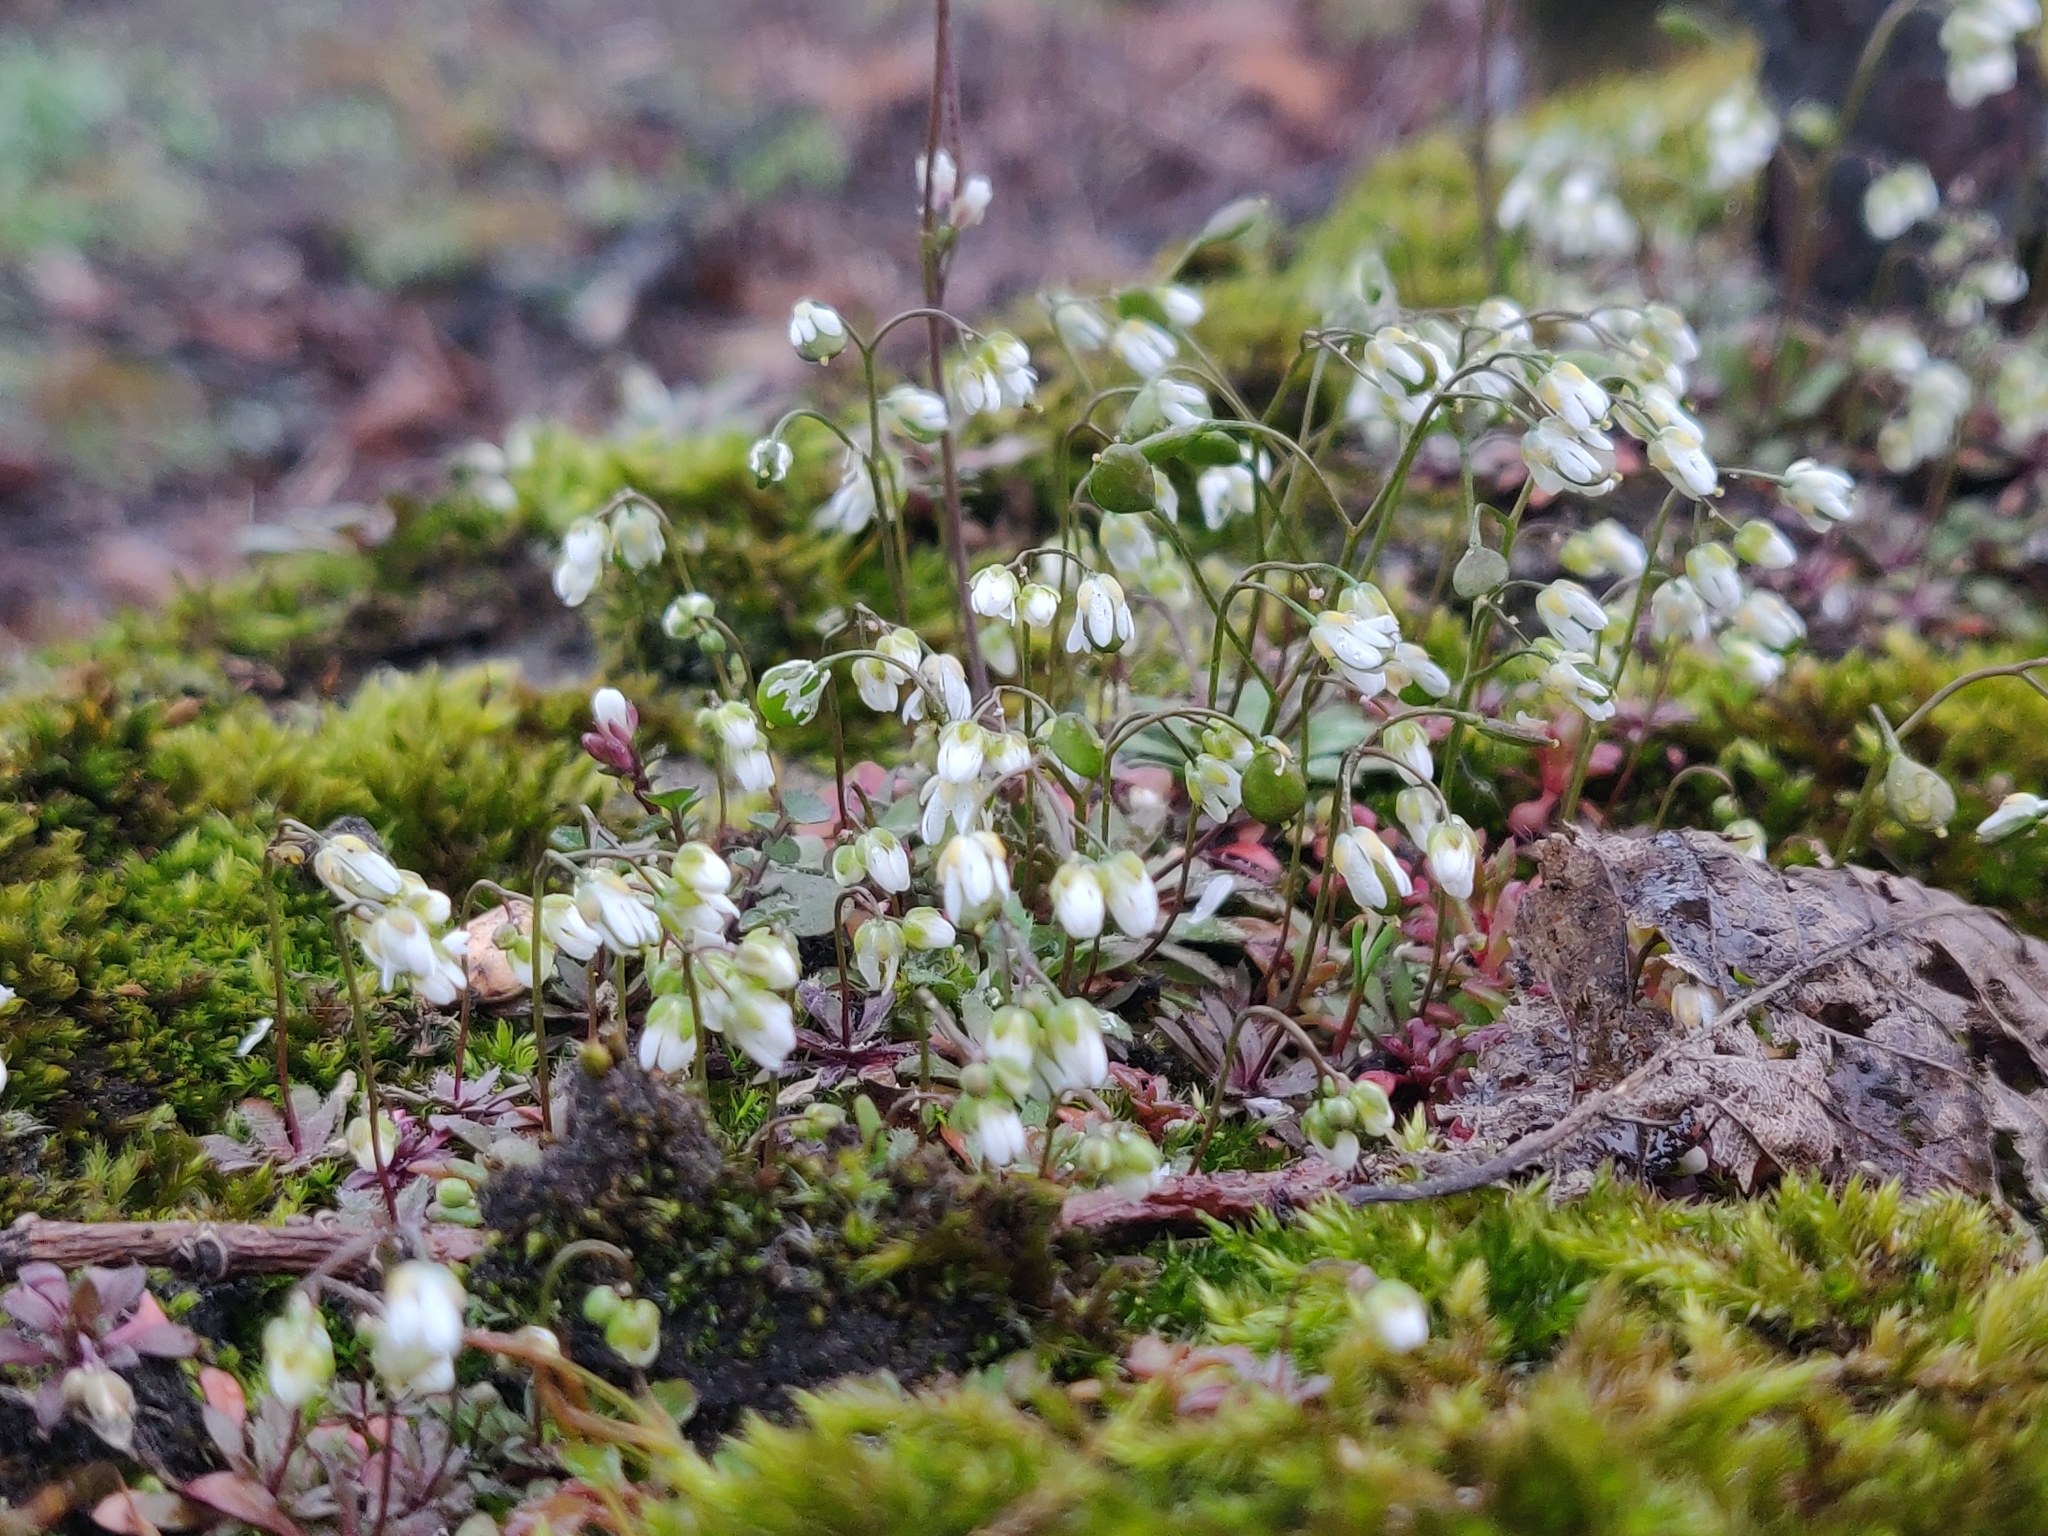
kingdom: Plantae
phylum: Tracheophyta
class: Magnoliopsida
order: Brassicales
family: Brassicaceae
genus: Draba
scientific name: Draba verna
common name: Spring draba
